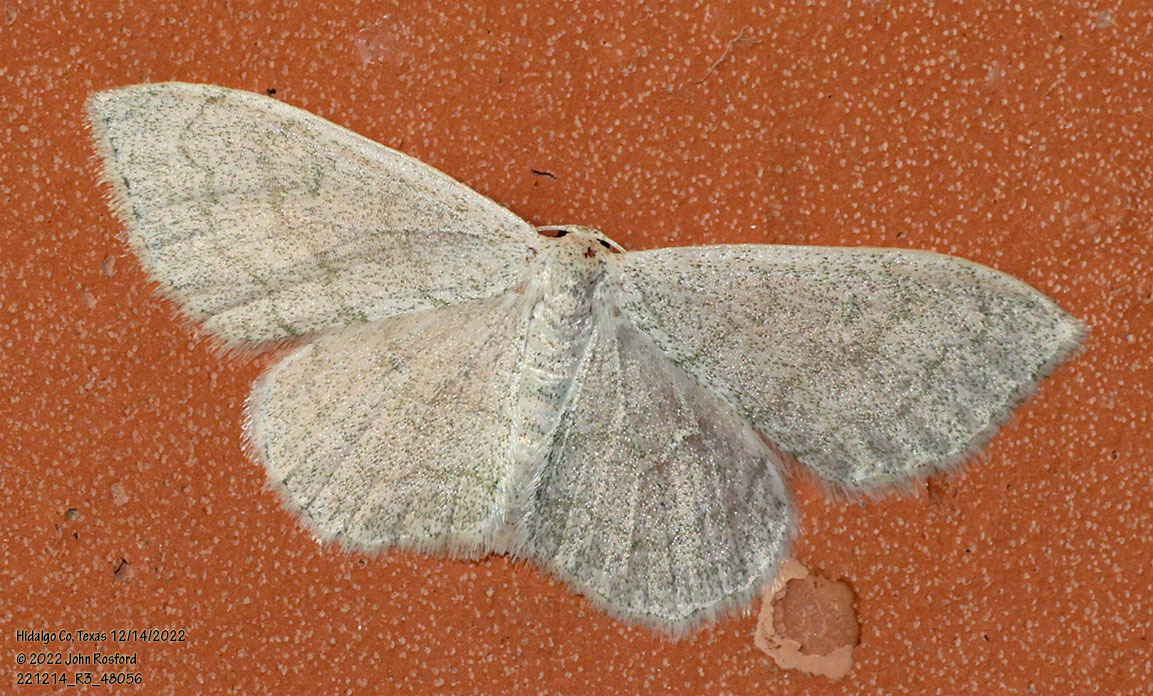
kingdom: Animalia
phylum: Arthropoda
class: Insecta
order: Lepidoptera
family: Geometridae
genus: Acratodes
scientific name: Acratodes suavata
